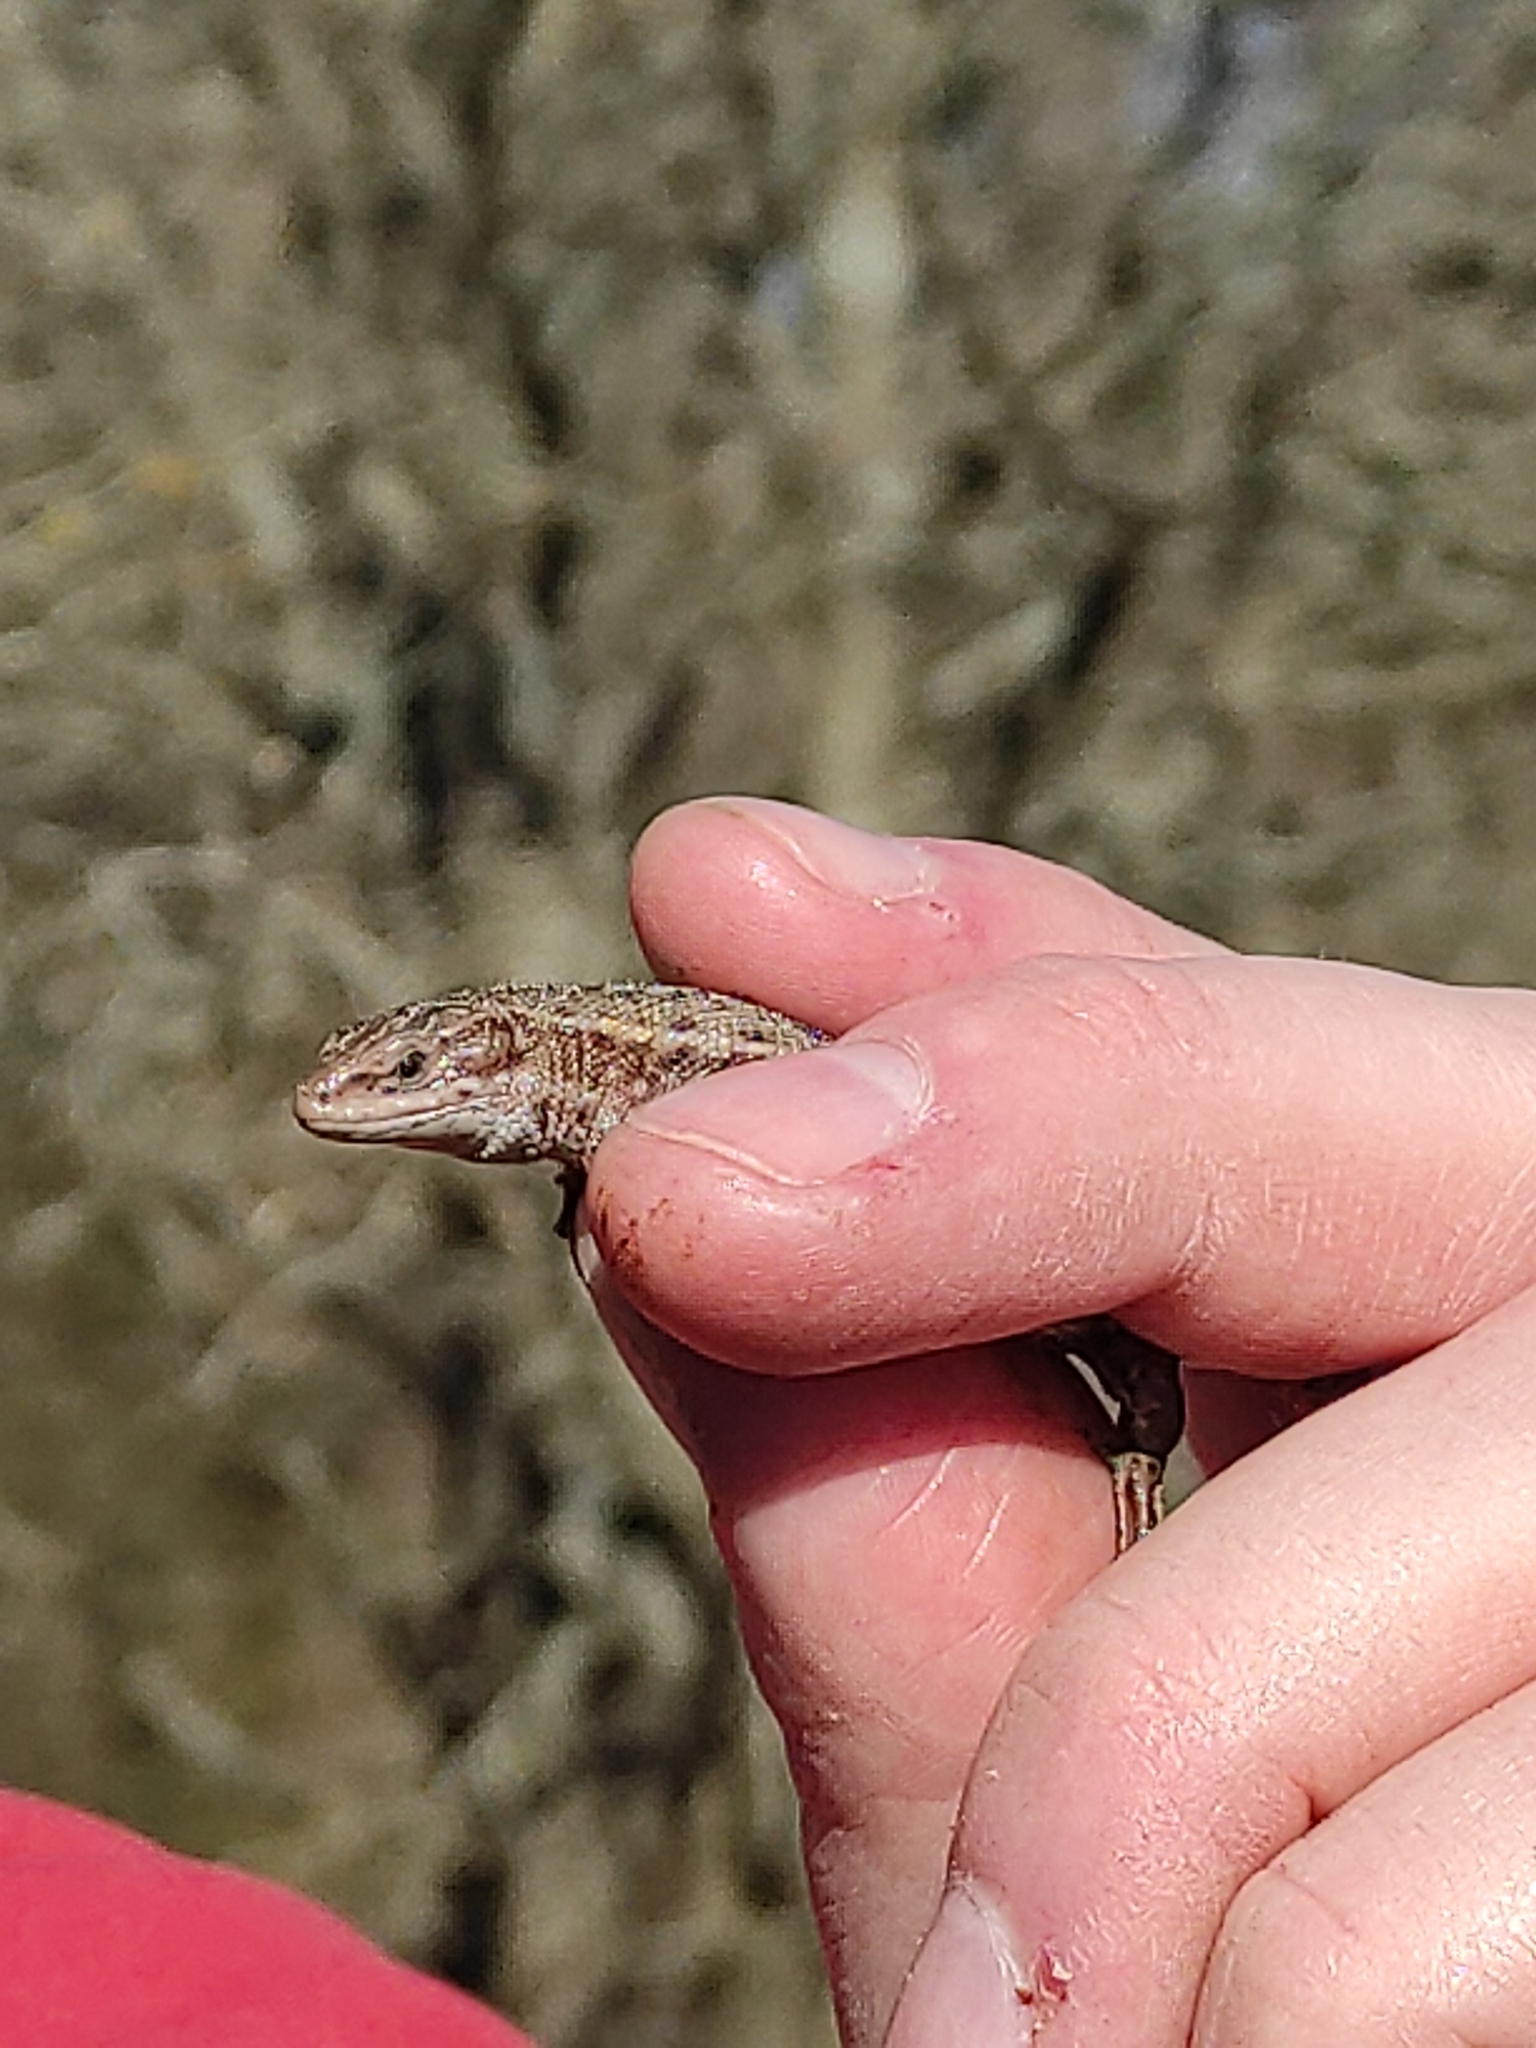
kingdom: Animalia
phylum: Chordata
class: Squamata
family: Lacertidae
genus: Zootoca
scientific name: Zootoca vivipara
